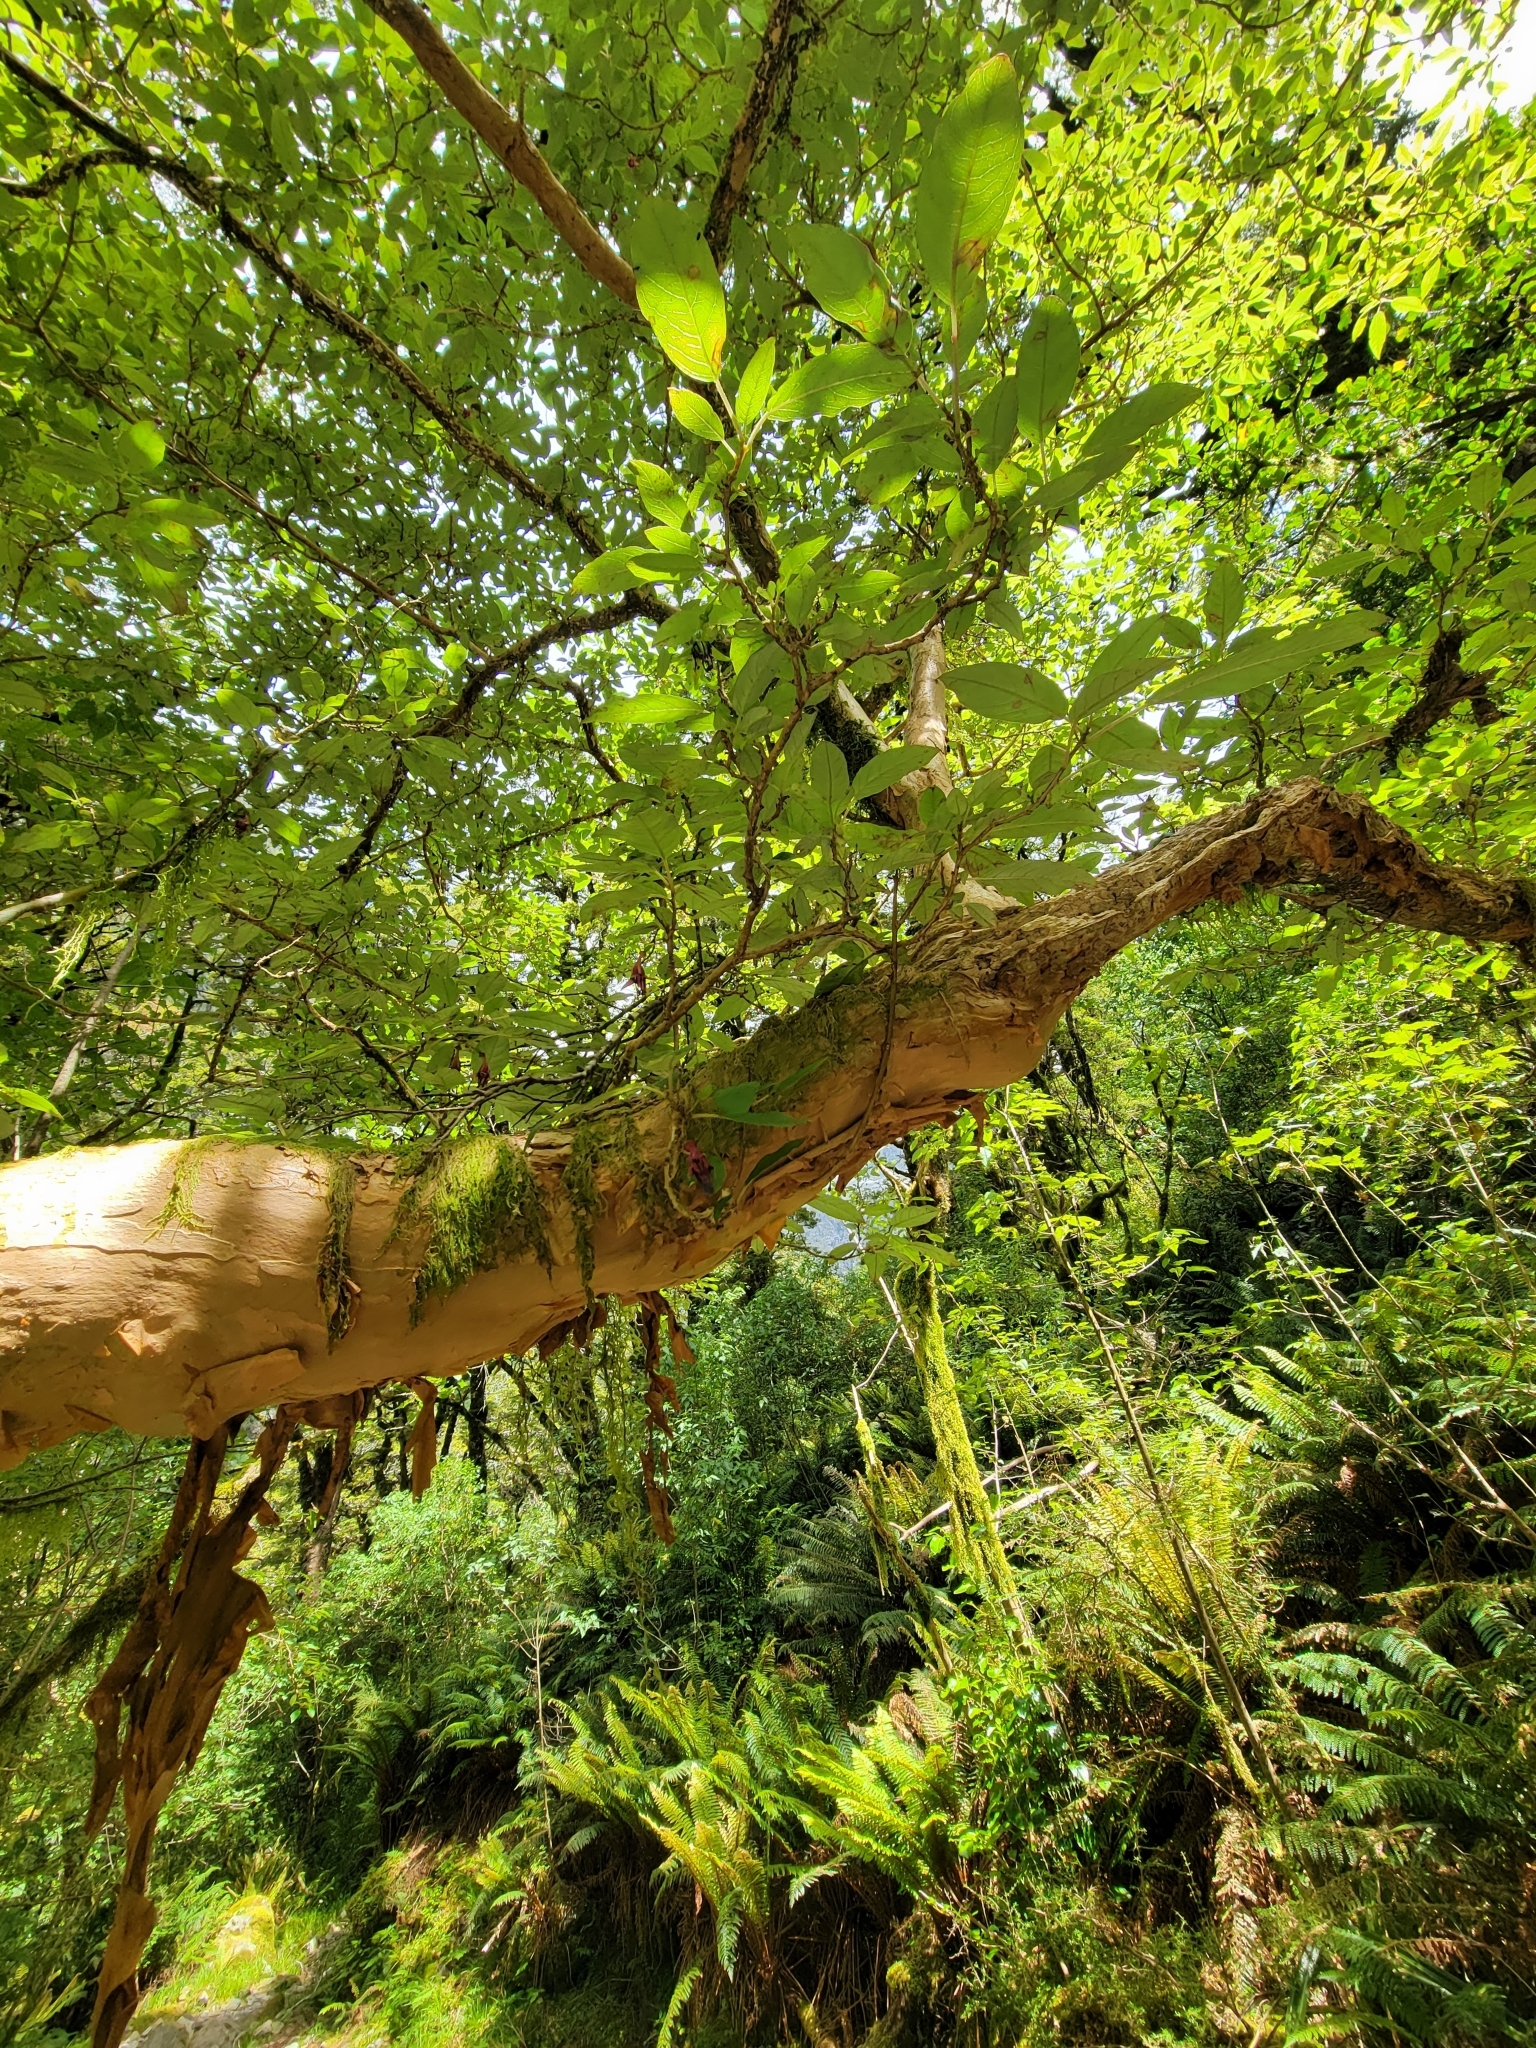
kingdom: Plantae
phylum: Tracheophyta
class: Magnoliopsida
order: Myrtales
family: Onagraceae
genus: Fuchsia
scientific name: Fuchsia excorticata
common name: Tree fuchsia
